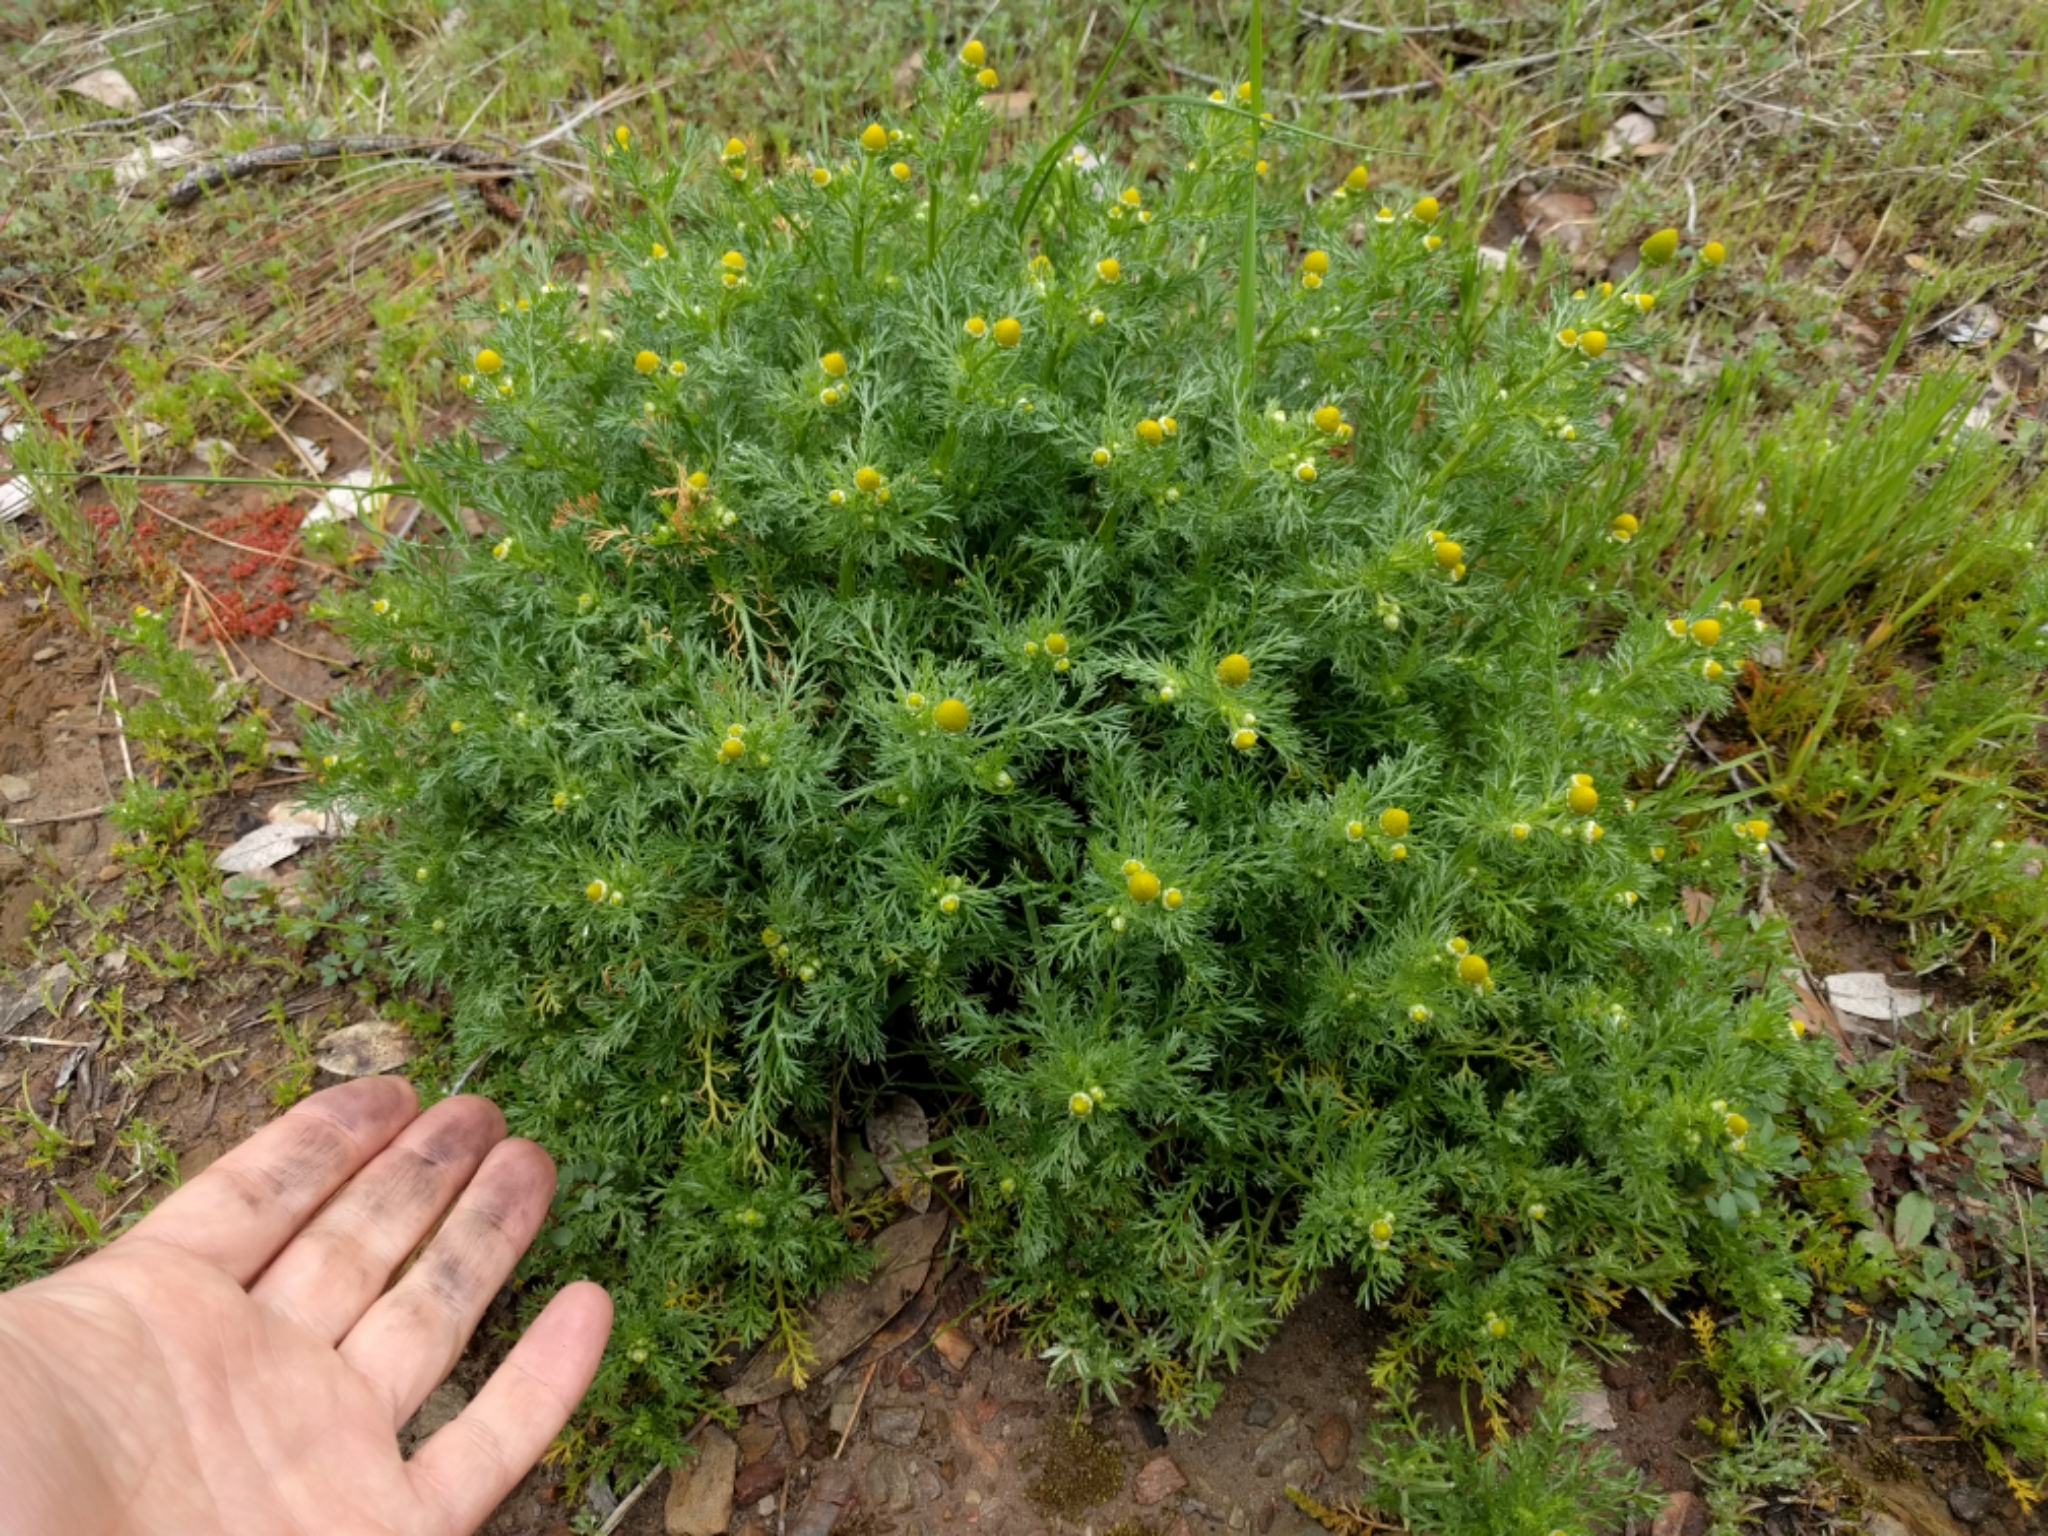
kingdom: Plantae
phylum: Tracheophyta
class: Magnoliopsida
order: Asterales
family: Asteraceae
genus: Matricaria
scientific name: Matricaria discoidea
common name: Disc mayweed
